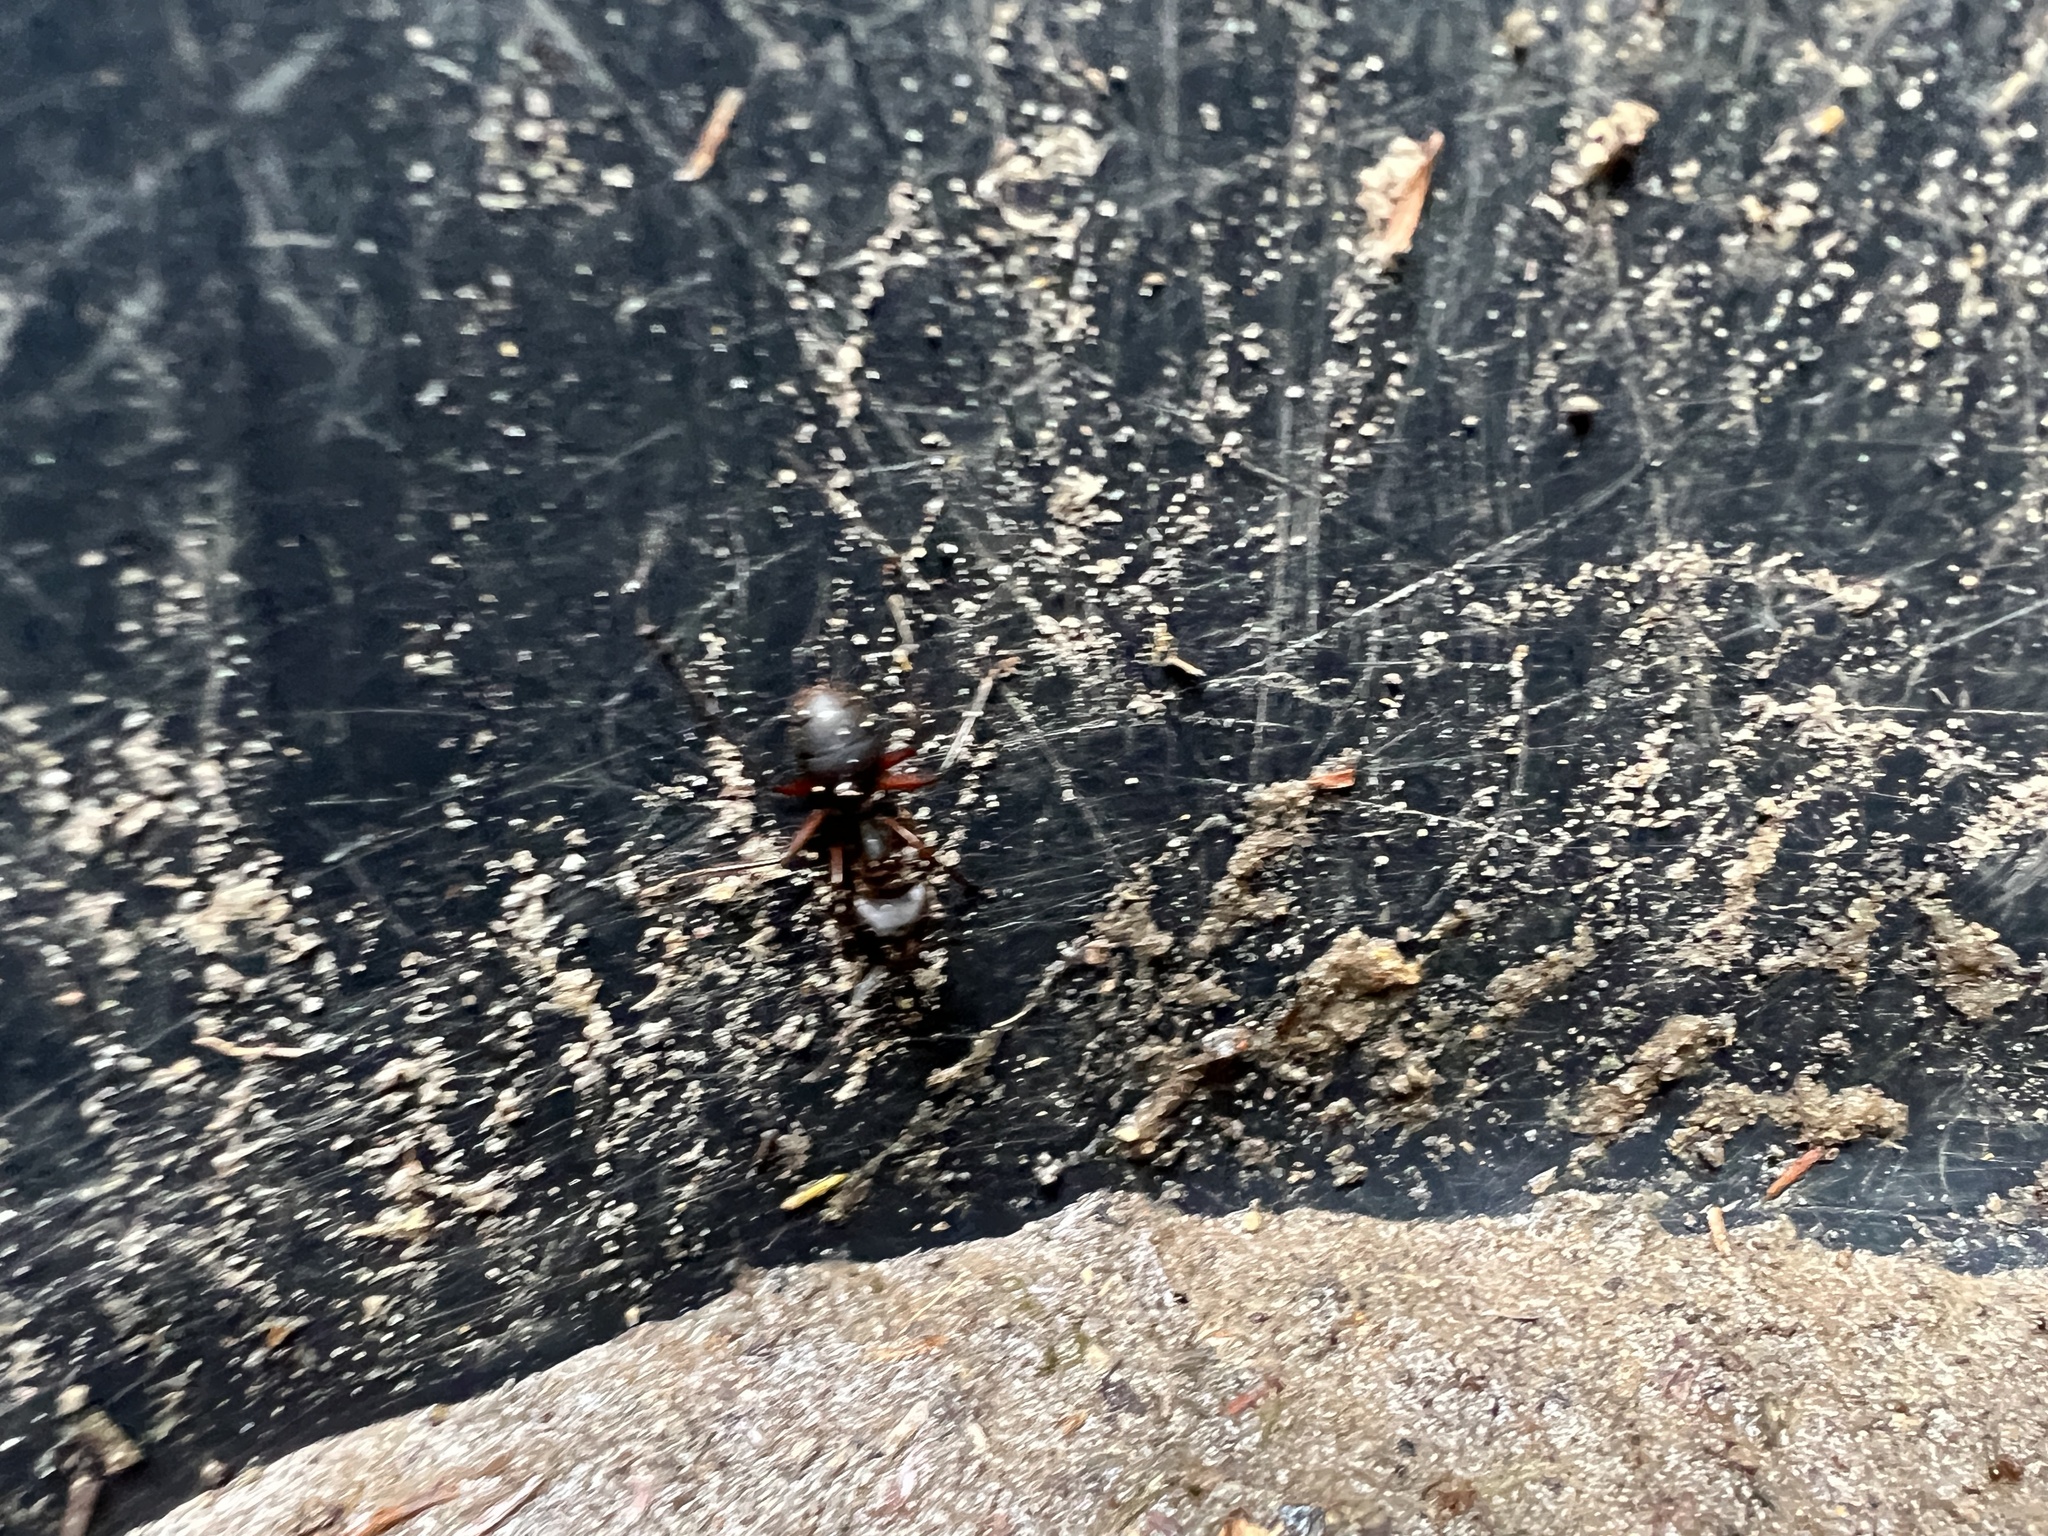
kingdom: Animalia
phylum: Arthropoda
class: Insecta
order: Hymenoptera
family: Formicidae
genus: Camponotus
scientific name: Camponotus rufipes
